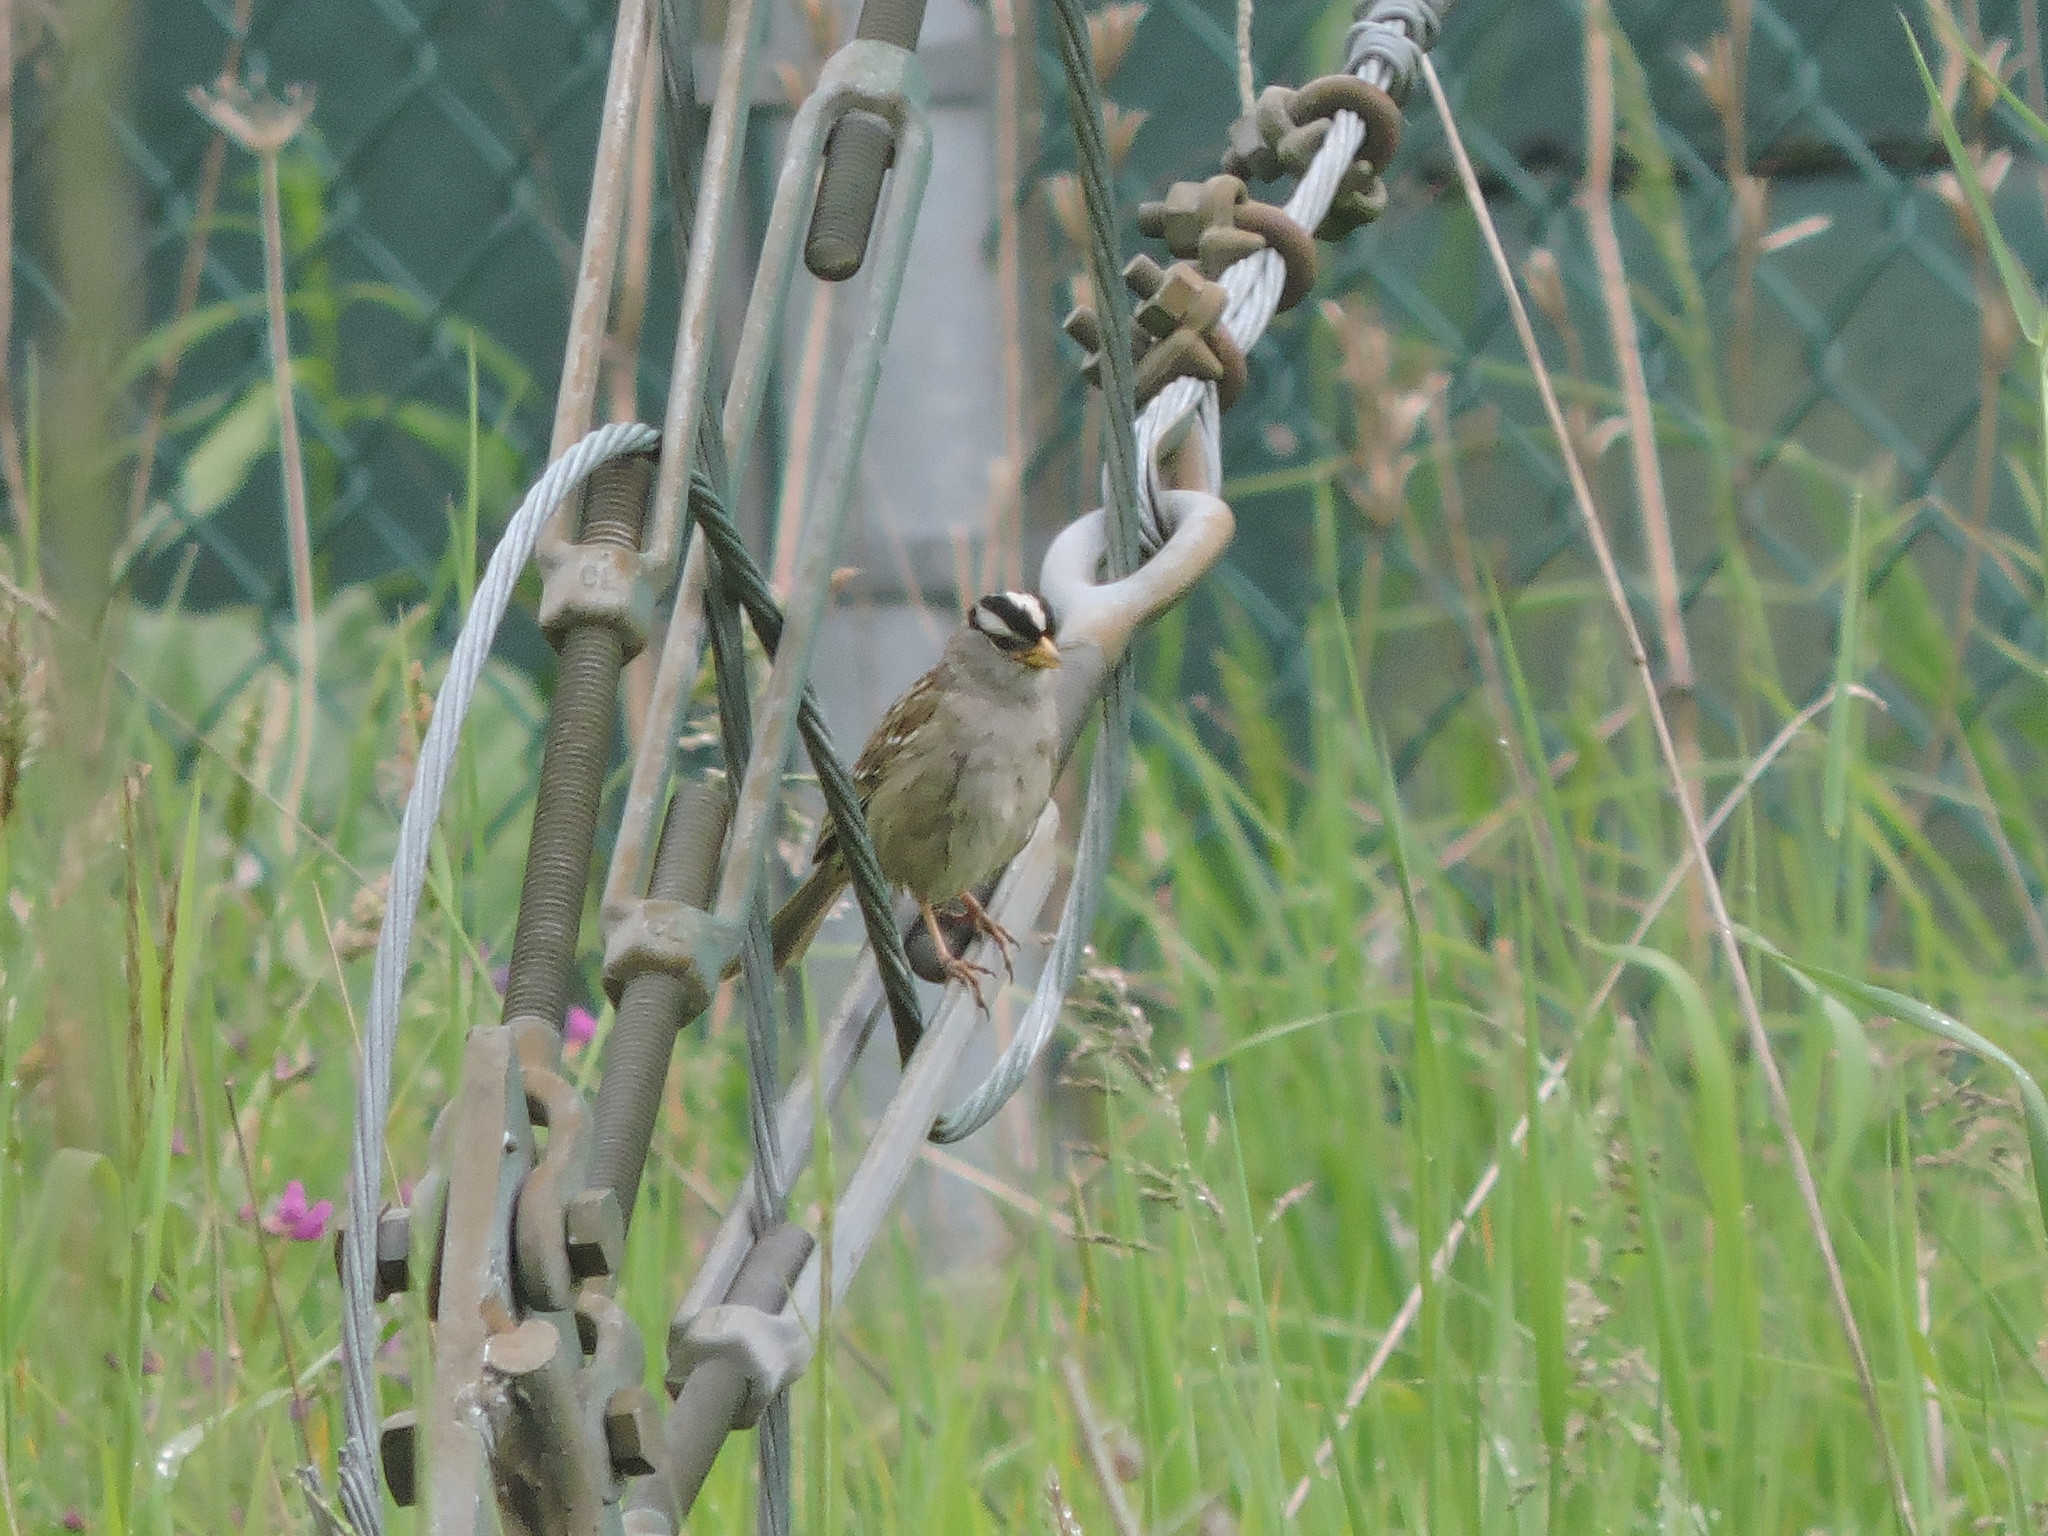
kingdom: Animalia
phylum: Chordata
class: Aves
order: Passeriformes
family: Passerellidae
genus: Zonotrichia
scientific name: Zonotrichia leucophrys
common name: White-crowned sparrow
